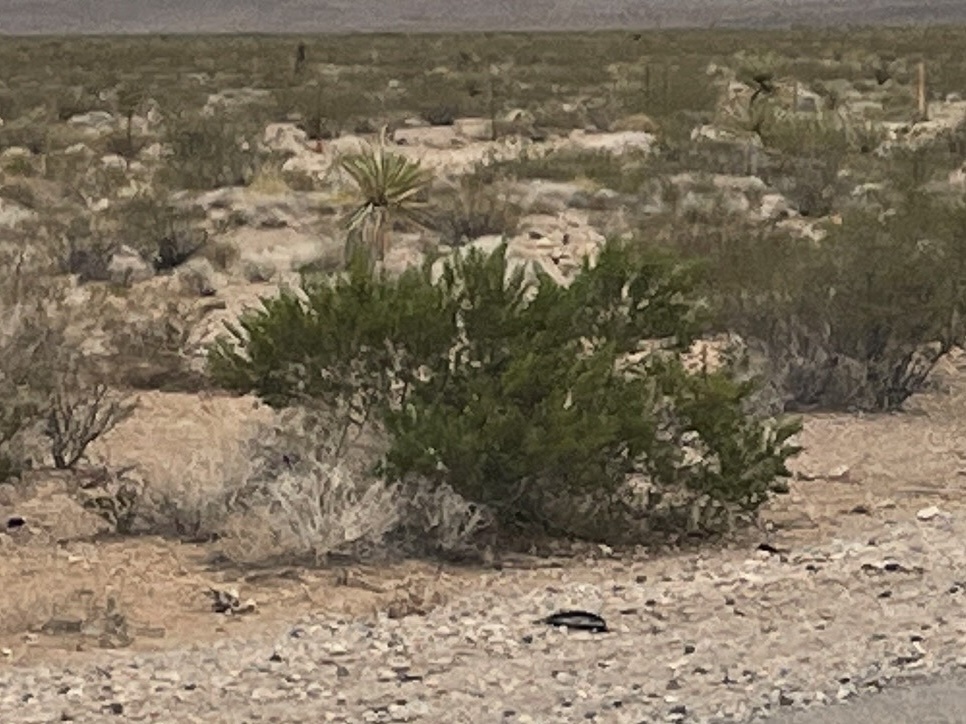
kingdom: Plantae
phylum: Tracheophyta
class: Magnoliopsida
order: Zygophyllales
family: Zygophyllaceae
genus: Larrea
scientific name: Larrea tridentata
